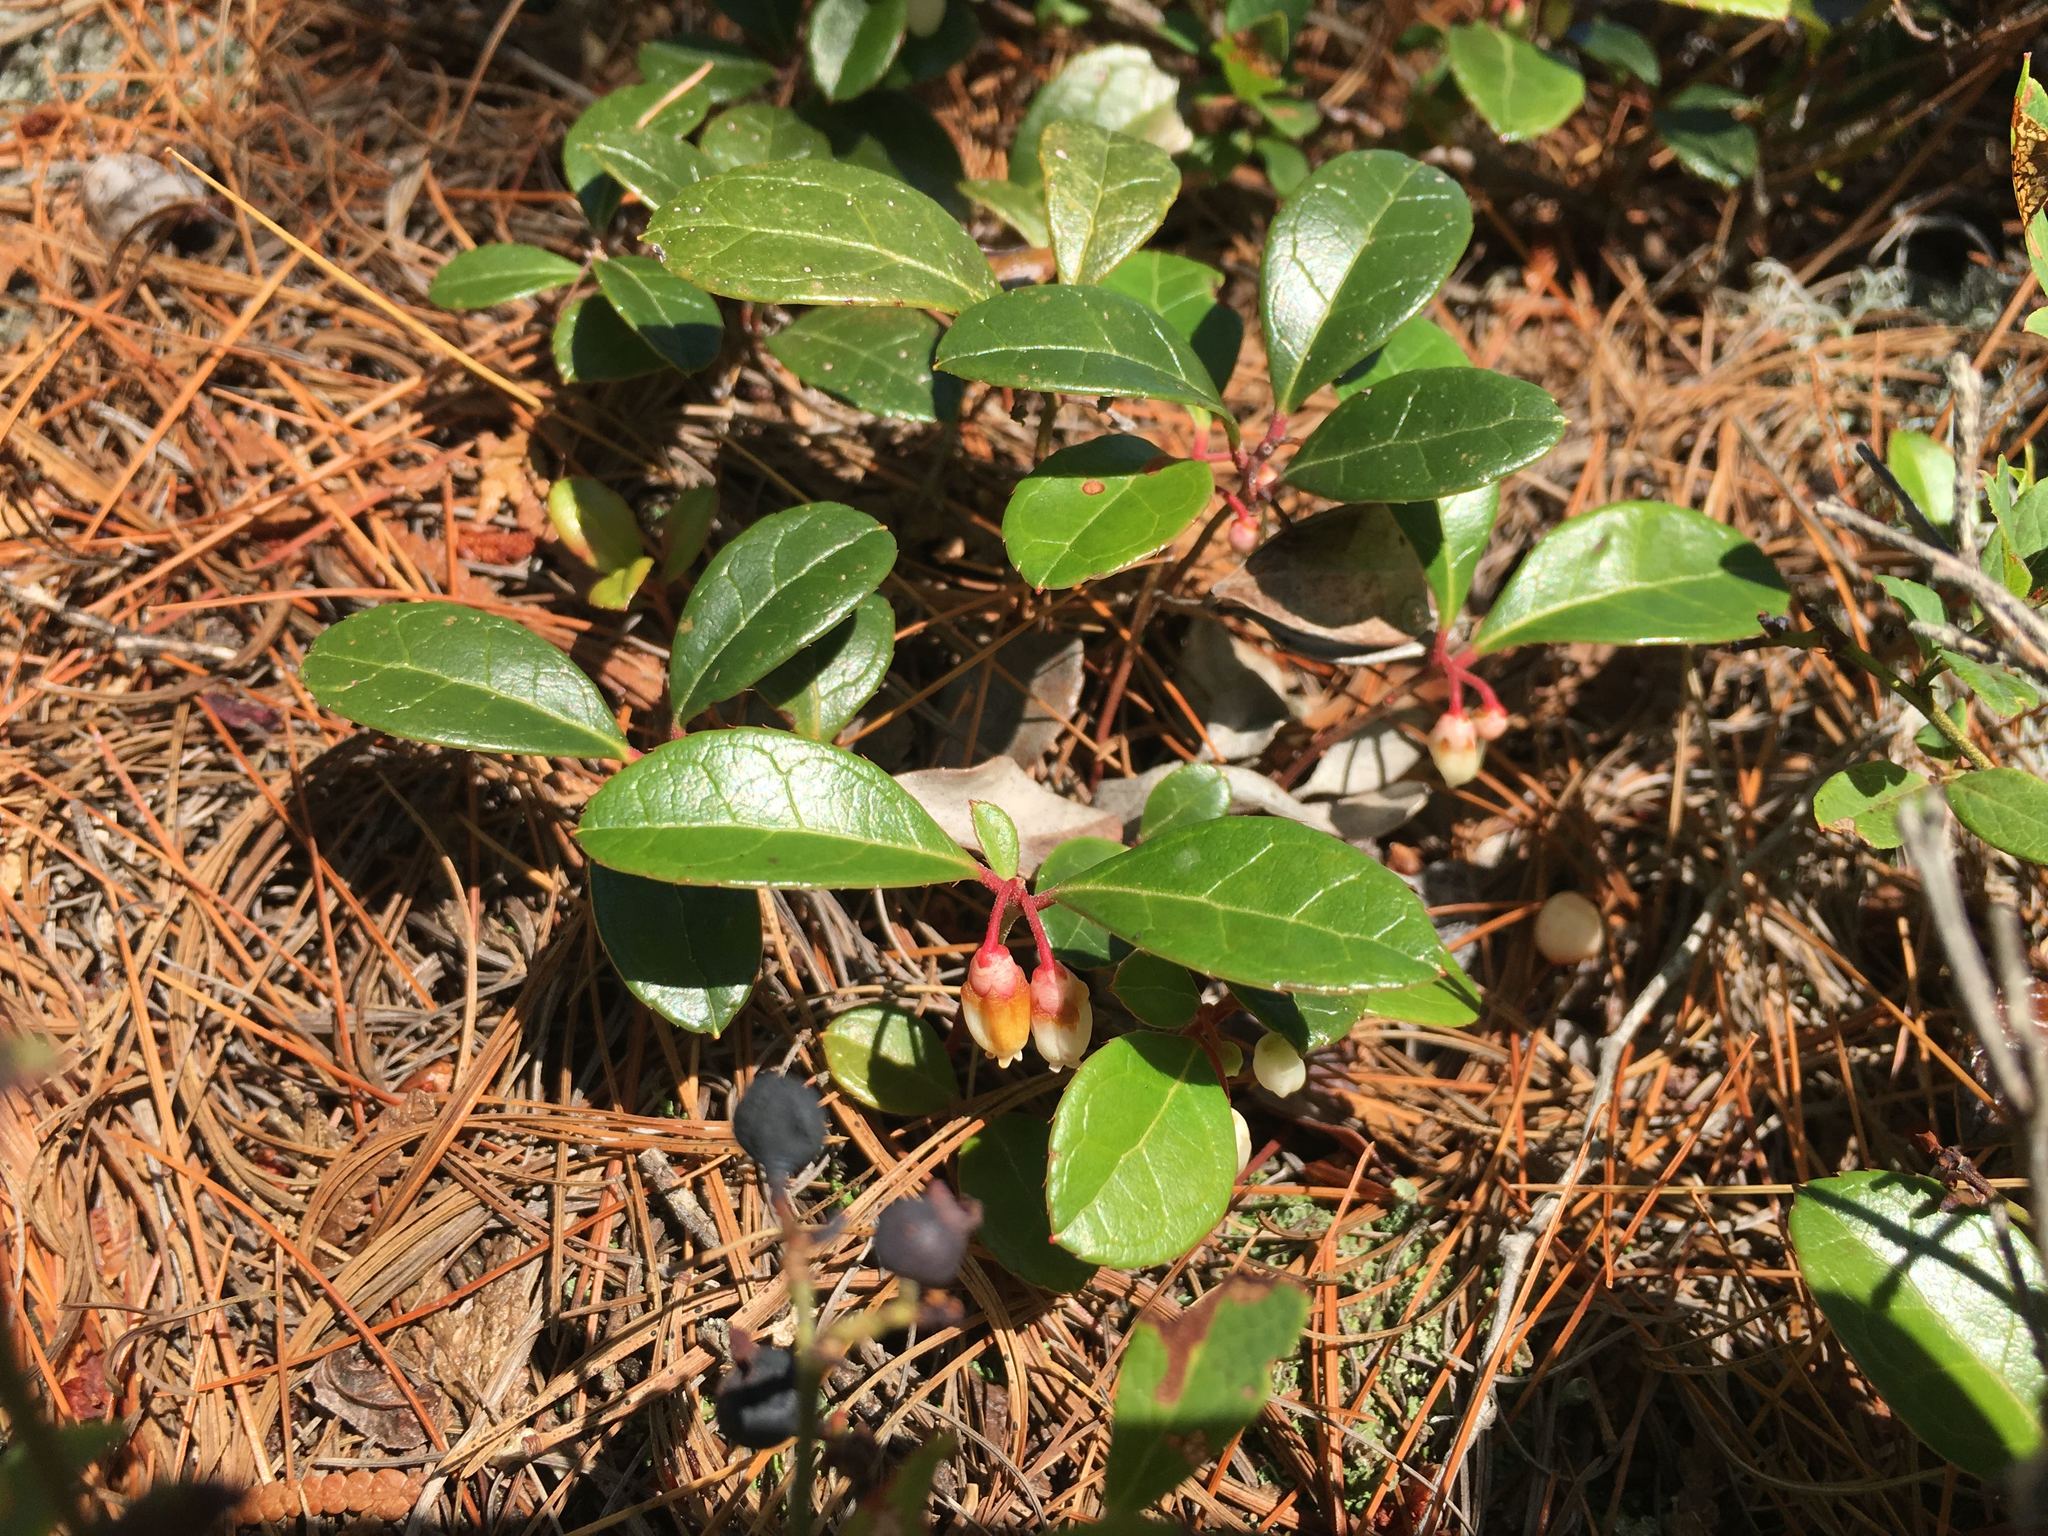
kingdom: Plantae
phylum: Tracheophyta
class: Magnoliopsida
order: Ericales
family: Ericaceae
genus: Gaultheria
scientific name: Gaultheria procumbens
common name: Checkerberry
